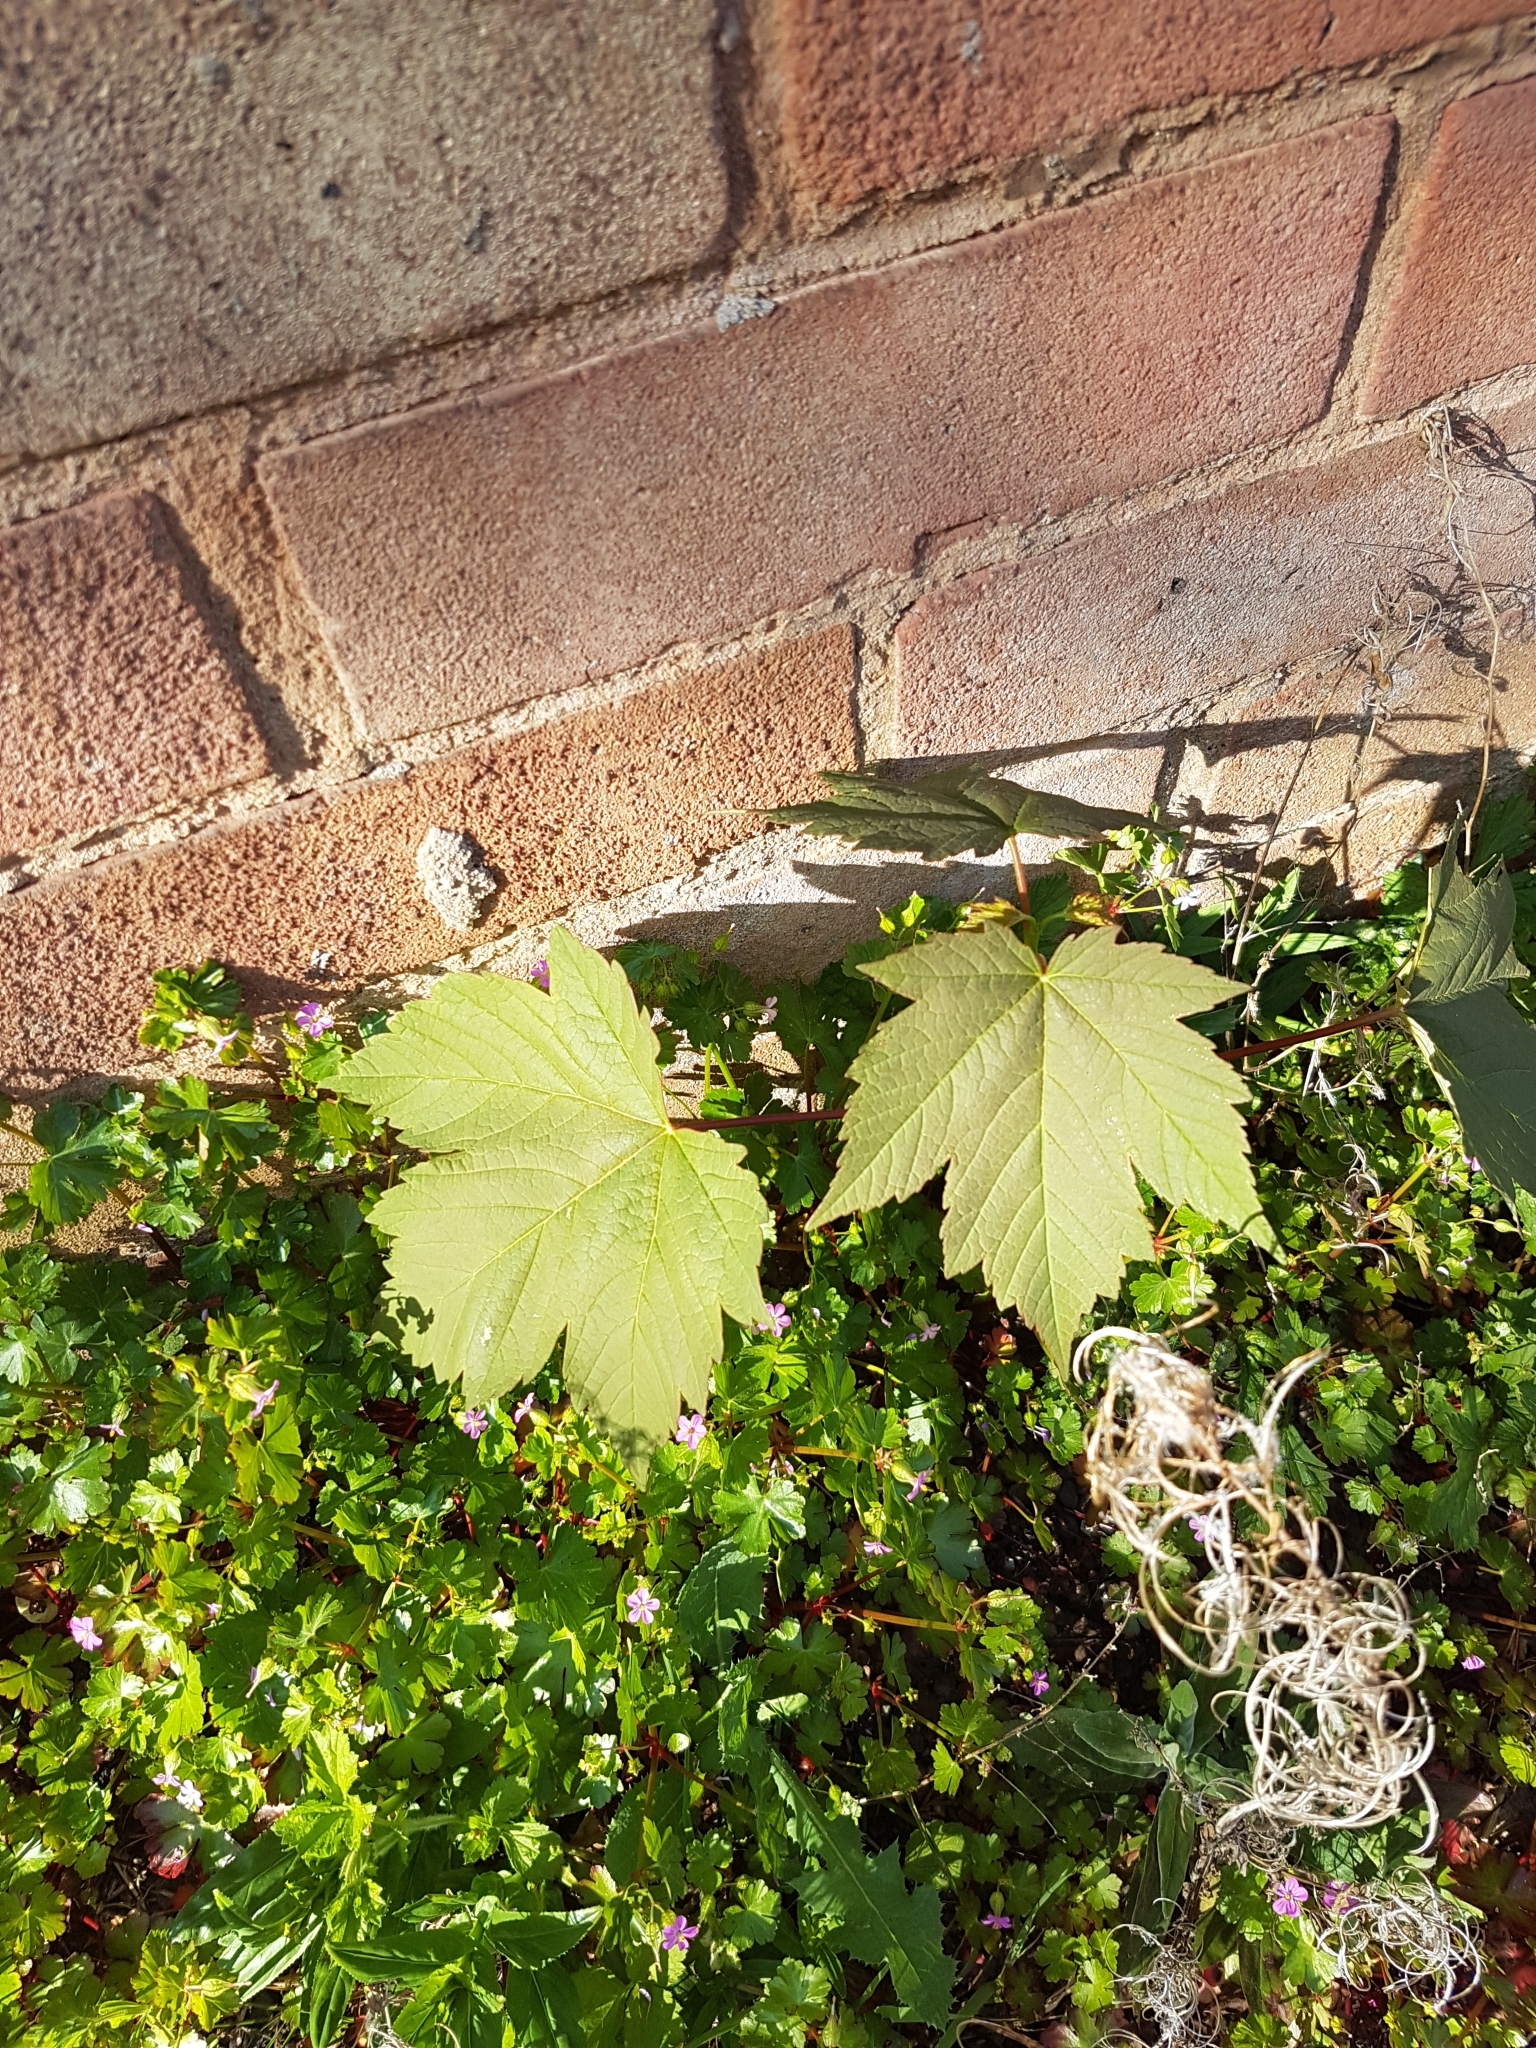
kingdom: Plantae
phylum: Tracheophyta
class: Magnoliopsida
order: Sapindales
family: Sapindaceae
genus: Acer
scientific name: Acer pseudoplatanus
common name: Sycamore
